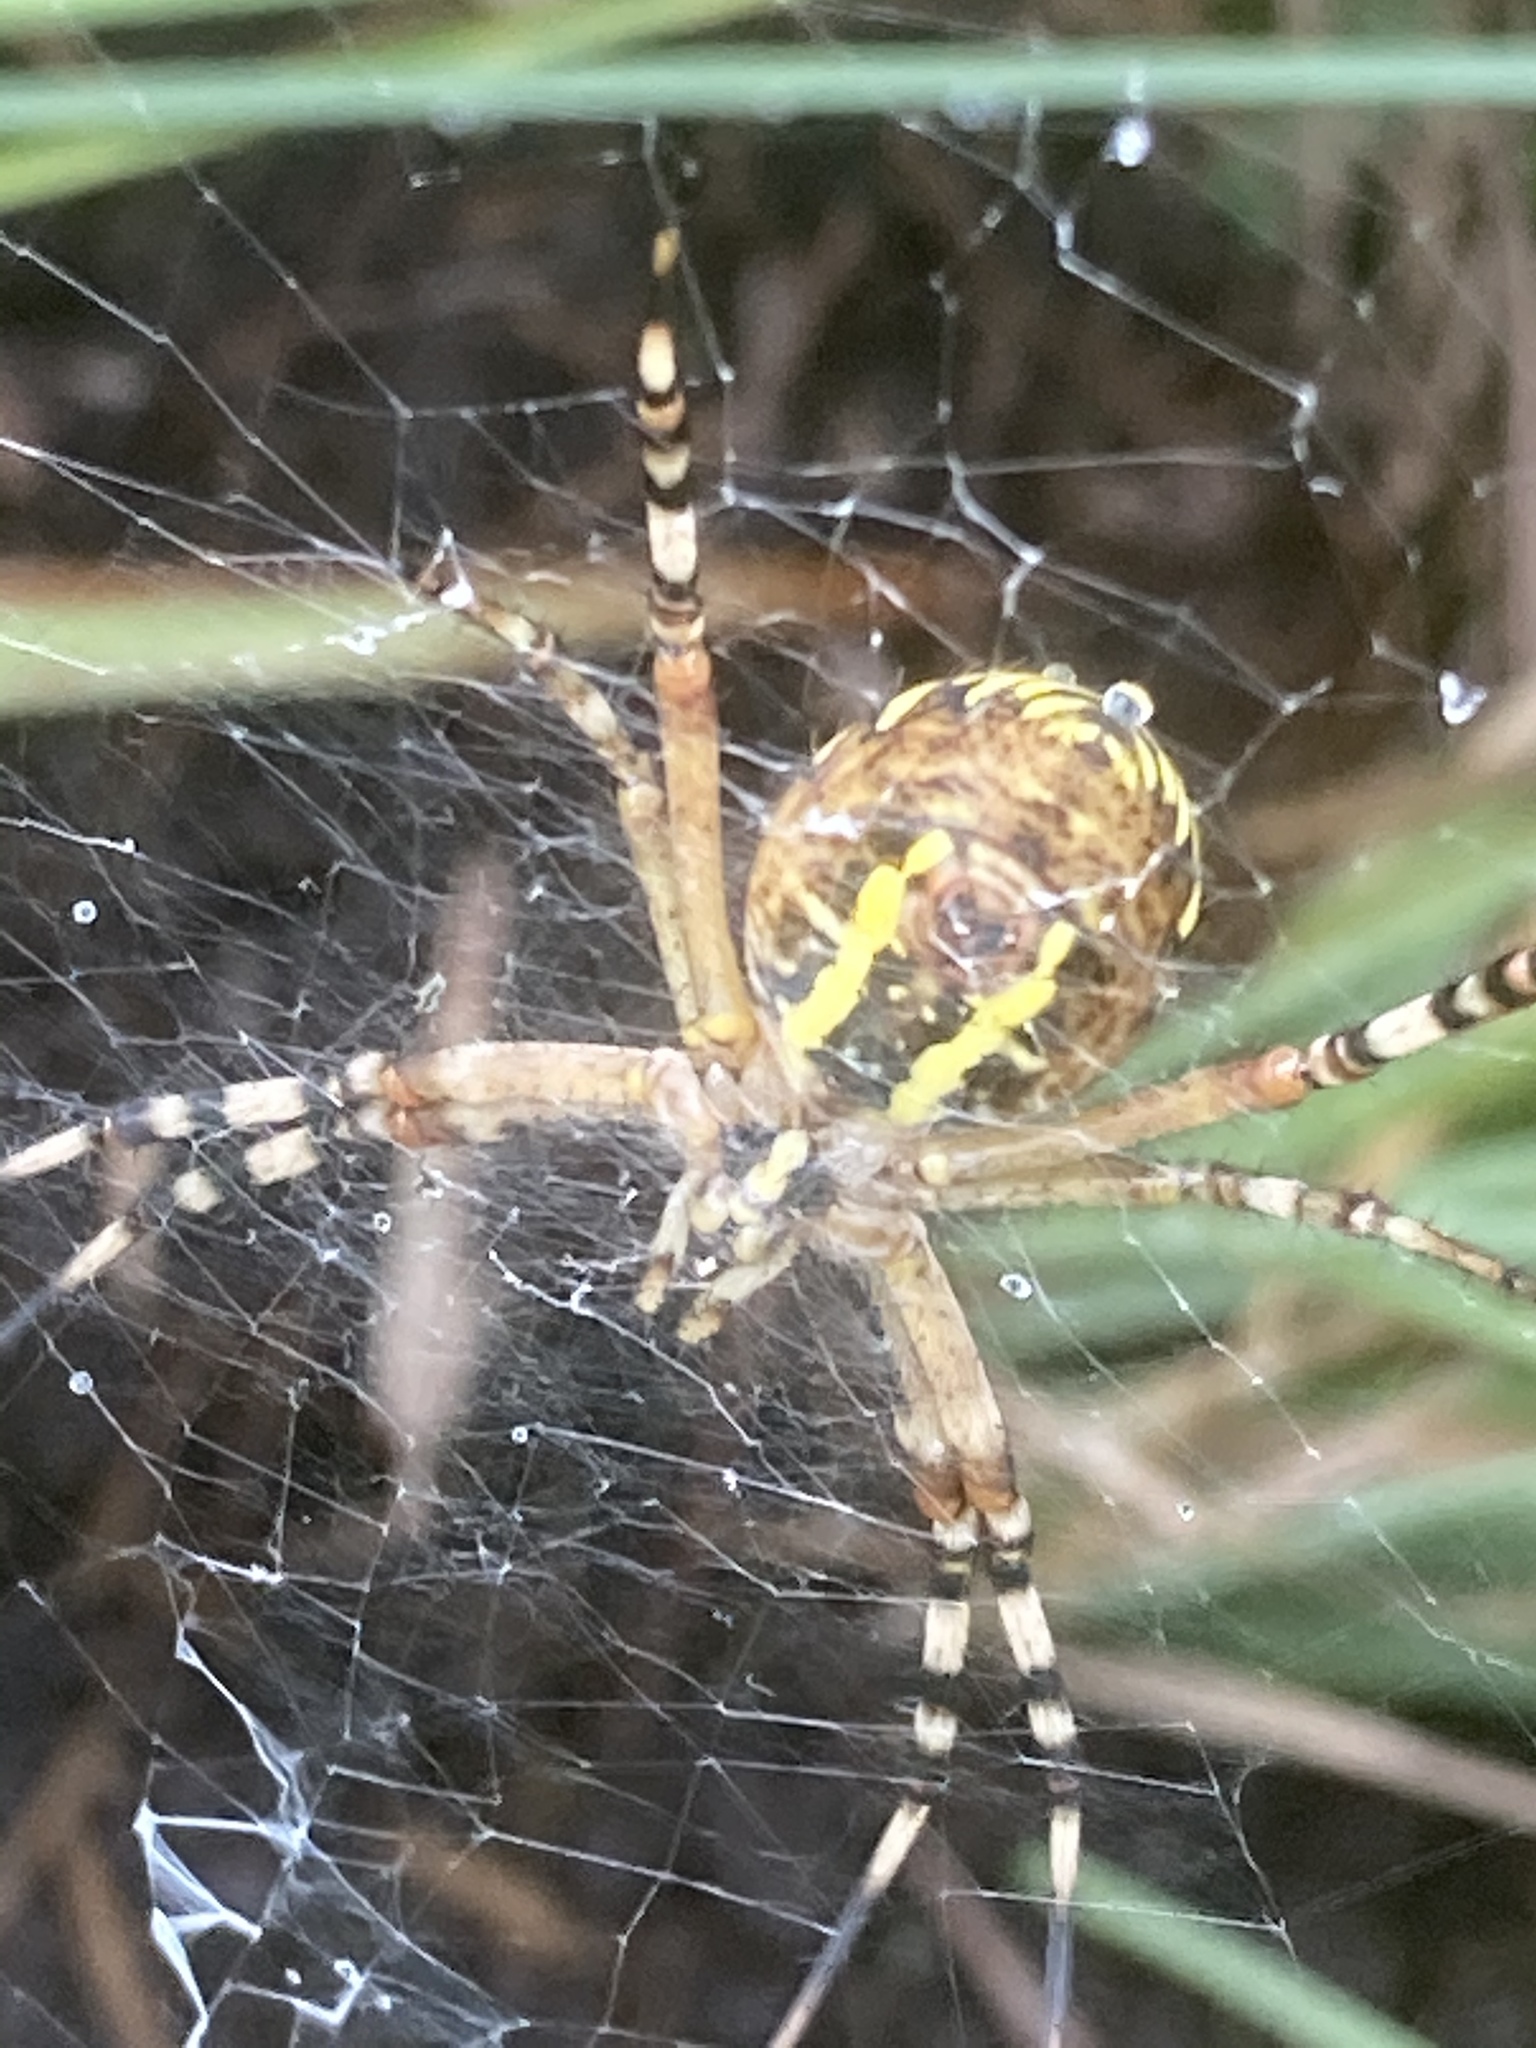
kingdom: Animalia
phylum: Arthropoda
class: Arachnida
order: Araneae
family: Araneidae
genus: Argiope
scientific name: Argiope bruennichi
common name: Wasp spider
